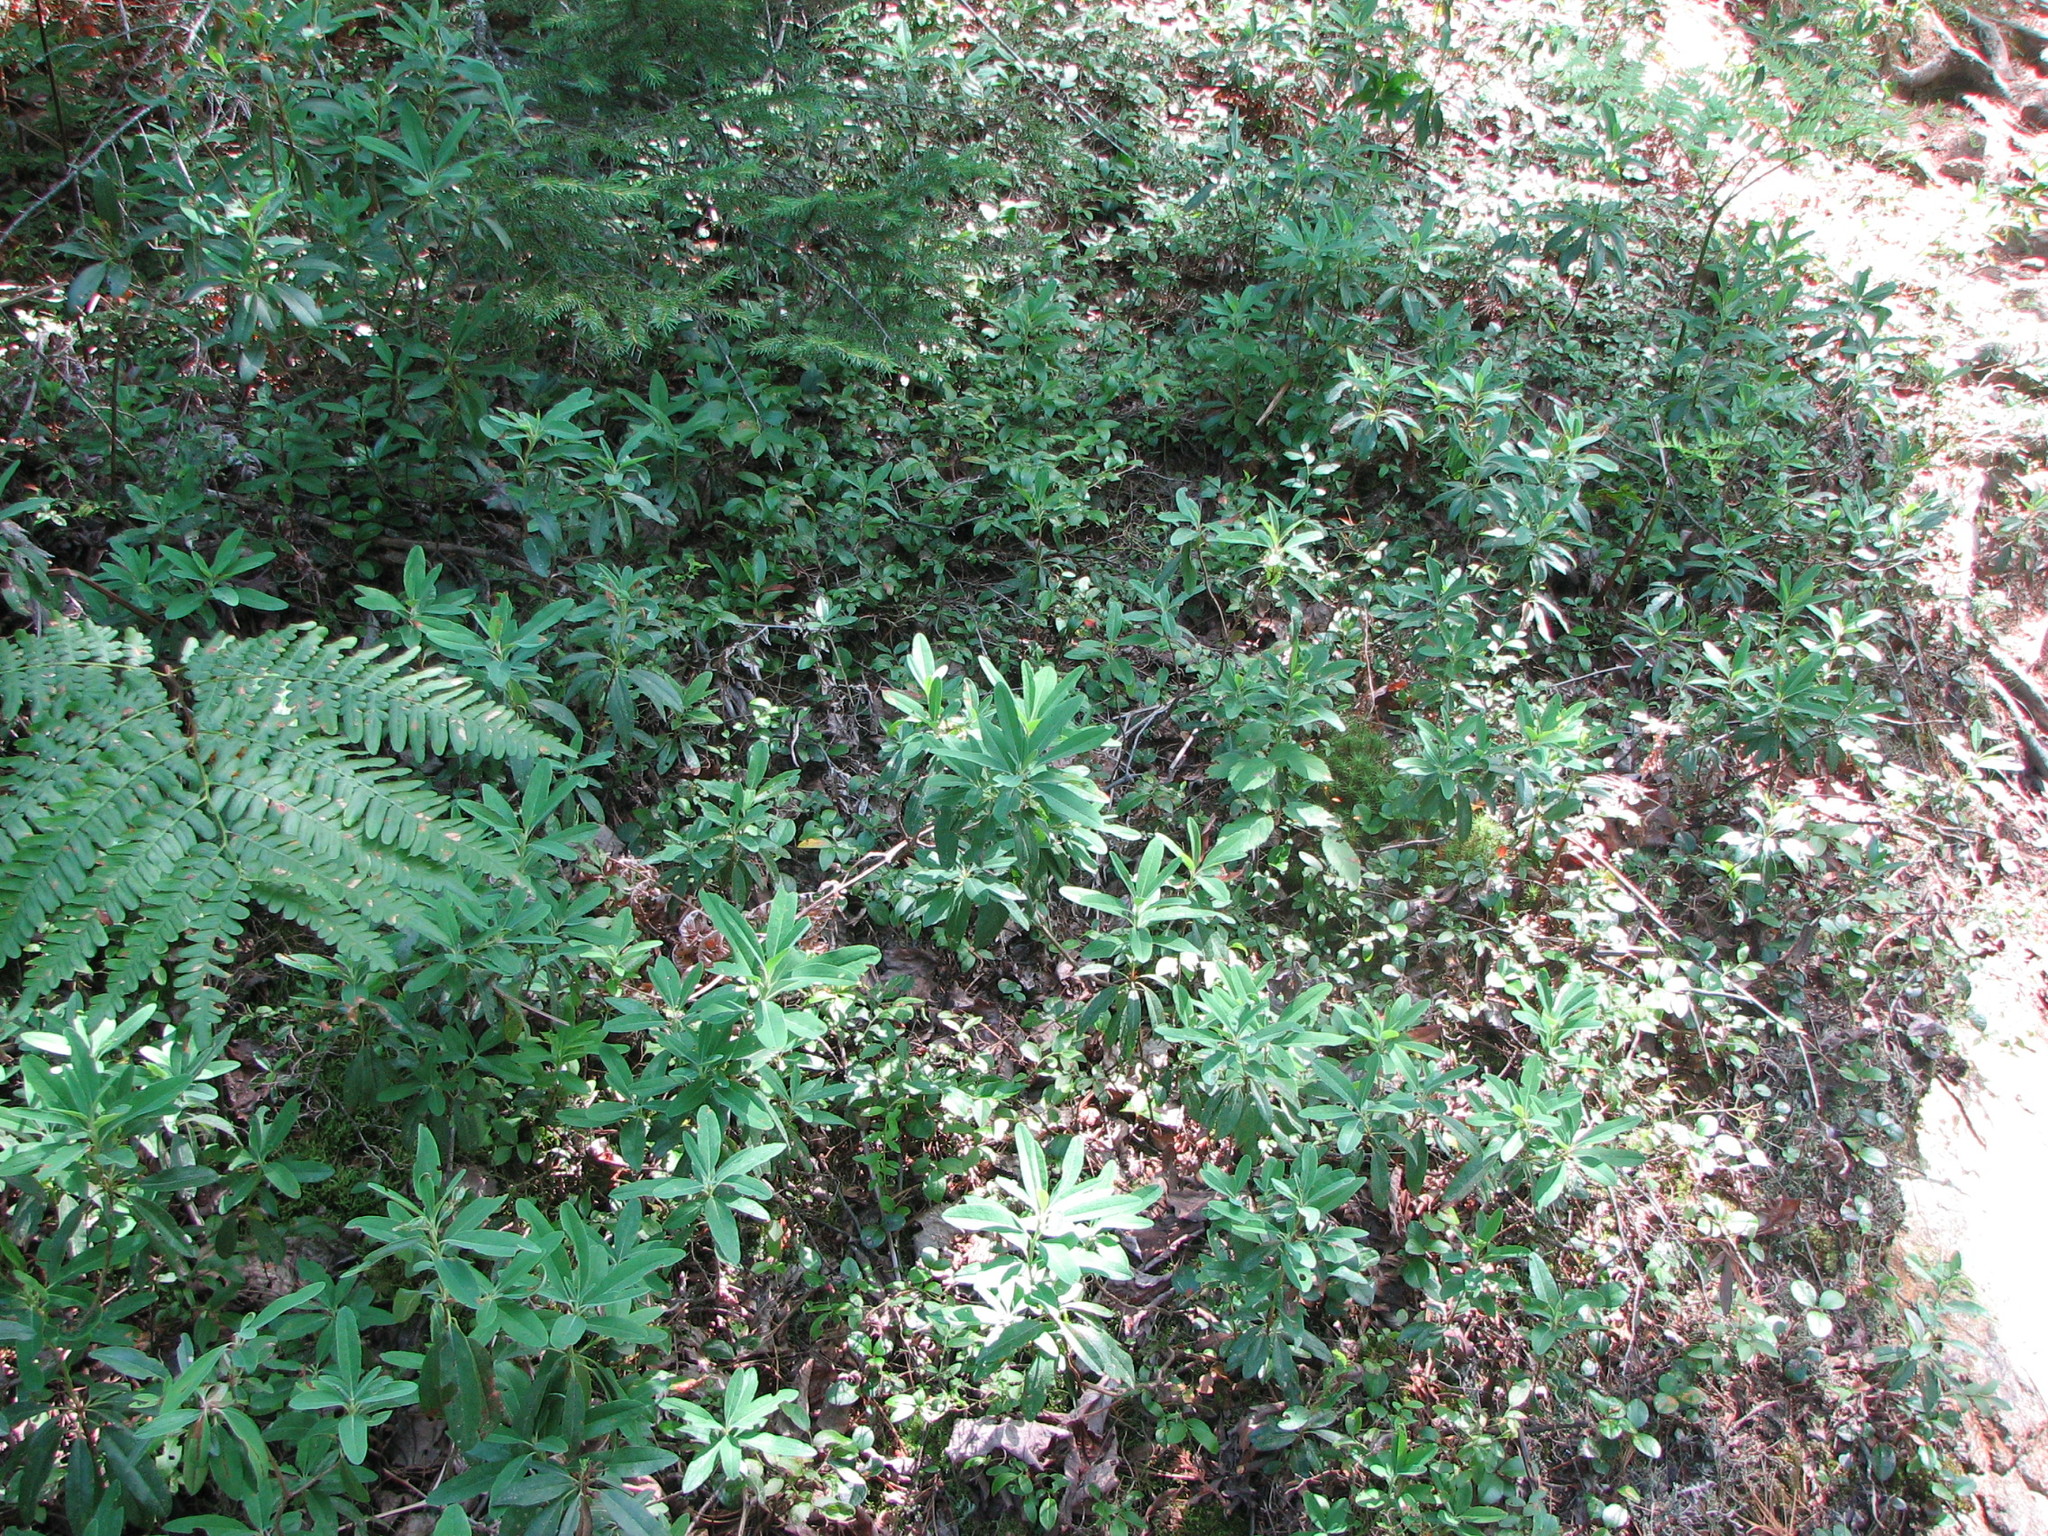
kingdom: Plantae
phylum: Tracheophyta
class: Magnoliopsida
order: Ericales
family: Ericaceae
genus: Kalmia
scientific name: Kalmia angustifolia
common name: Sheep-laurel
